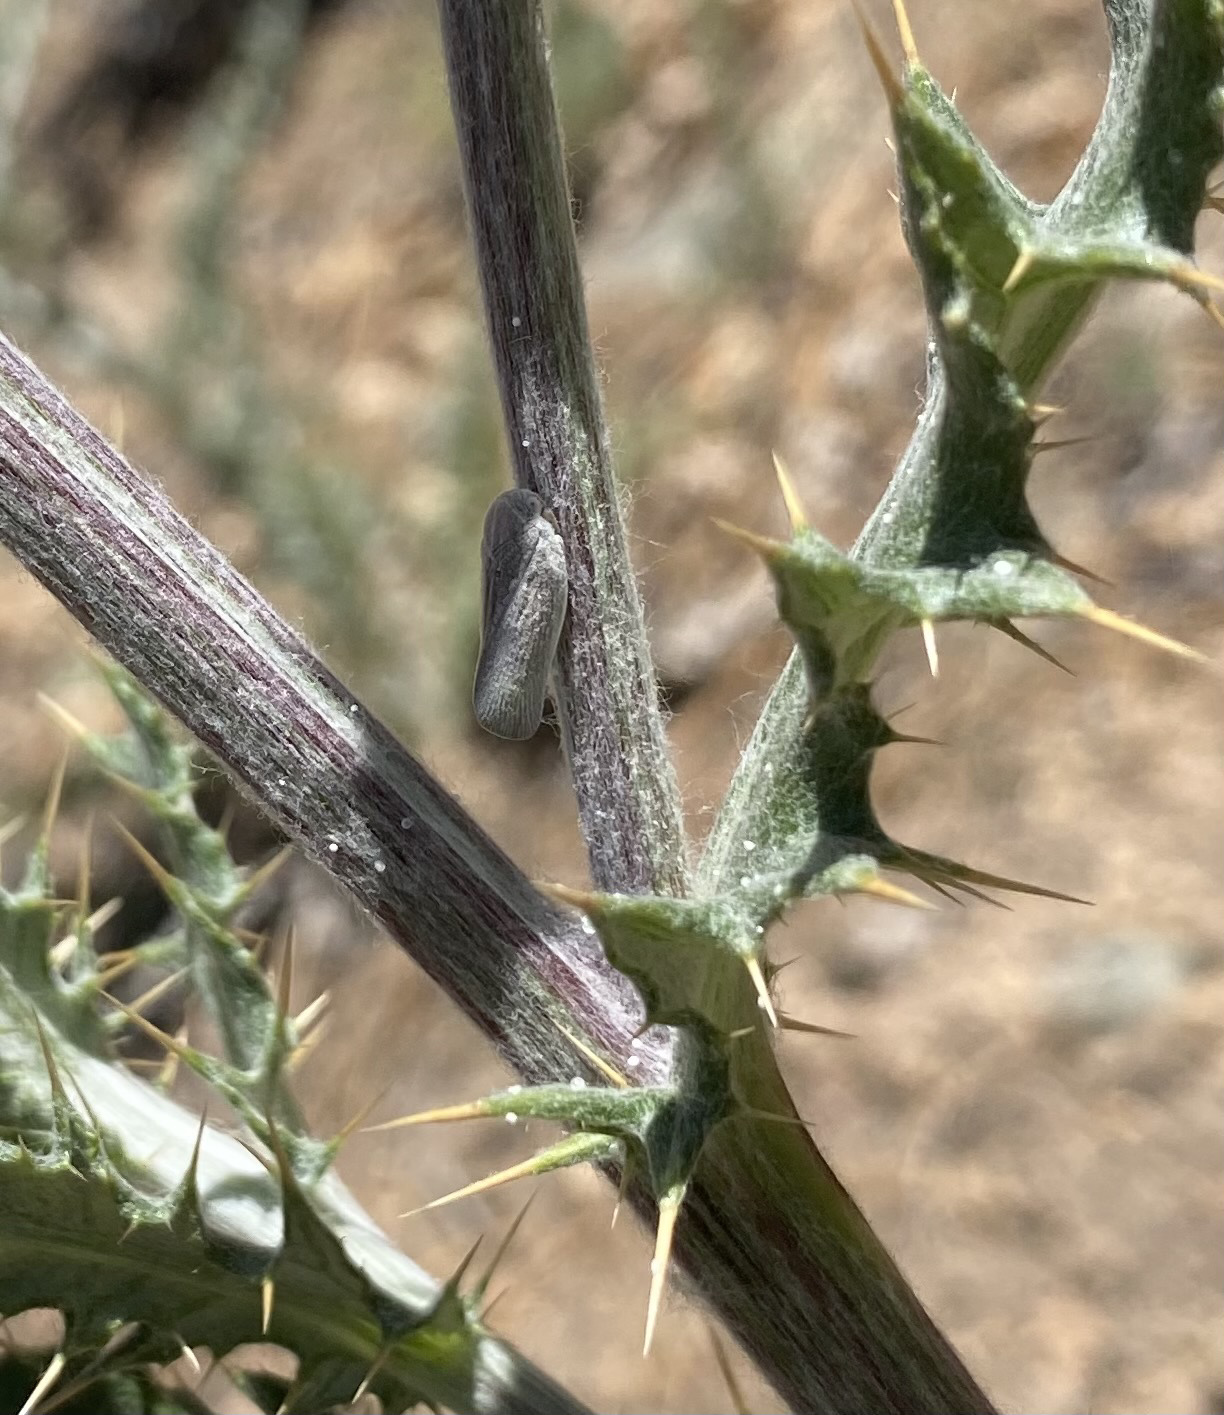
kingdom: Animalia
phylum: Arthropoda
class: Insecta
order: Hemiptera
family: Flatidae
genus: Flatormenis
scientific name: Flatormenis saucia
